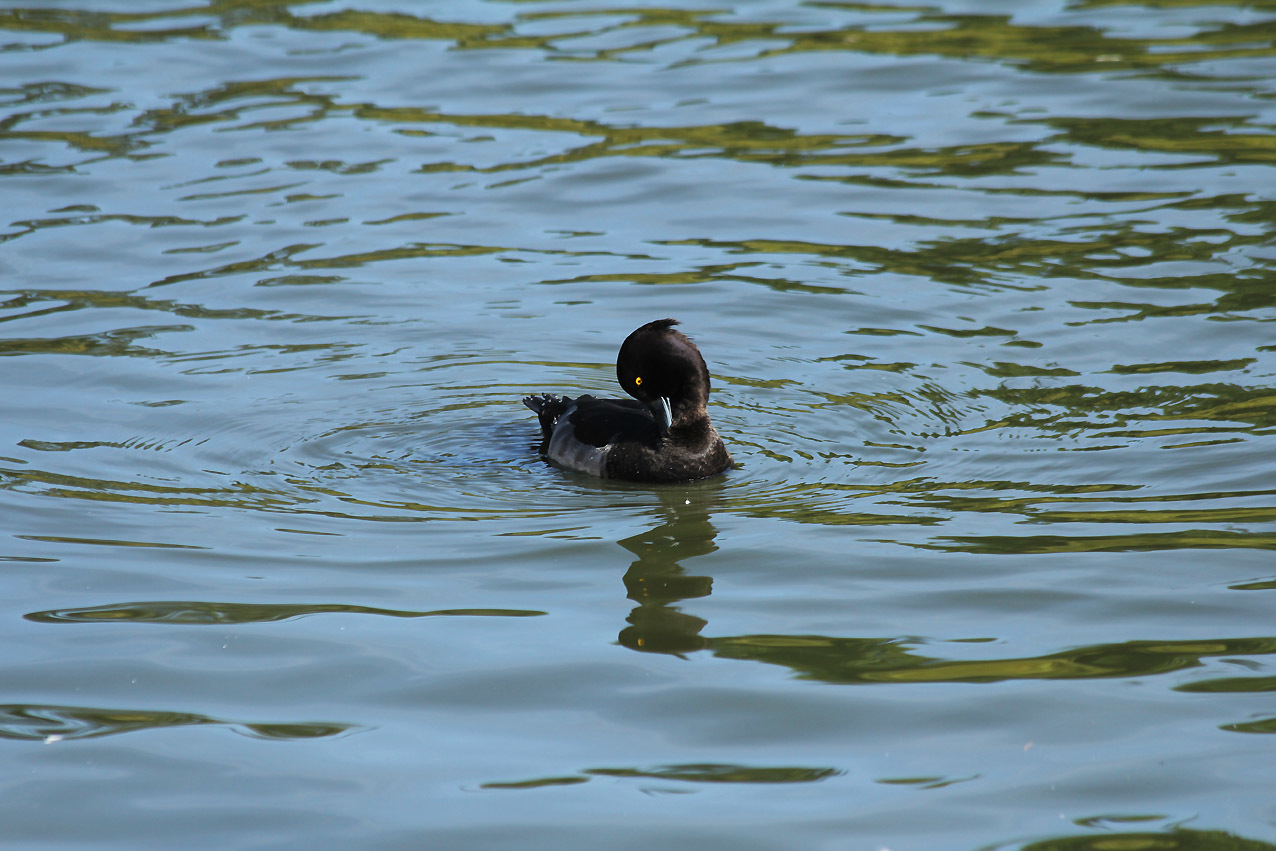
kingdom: Animalia
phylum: Chordata
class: Aves
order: Anseriformes
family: Anatidae
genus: Aythya
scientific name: Aythya fuligula
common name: Tufted duck
